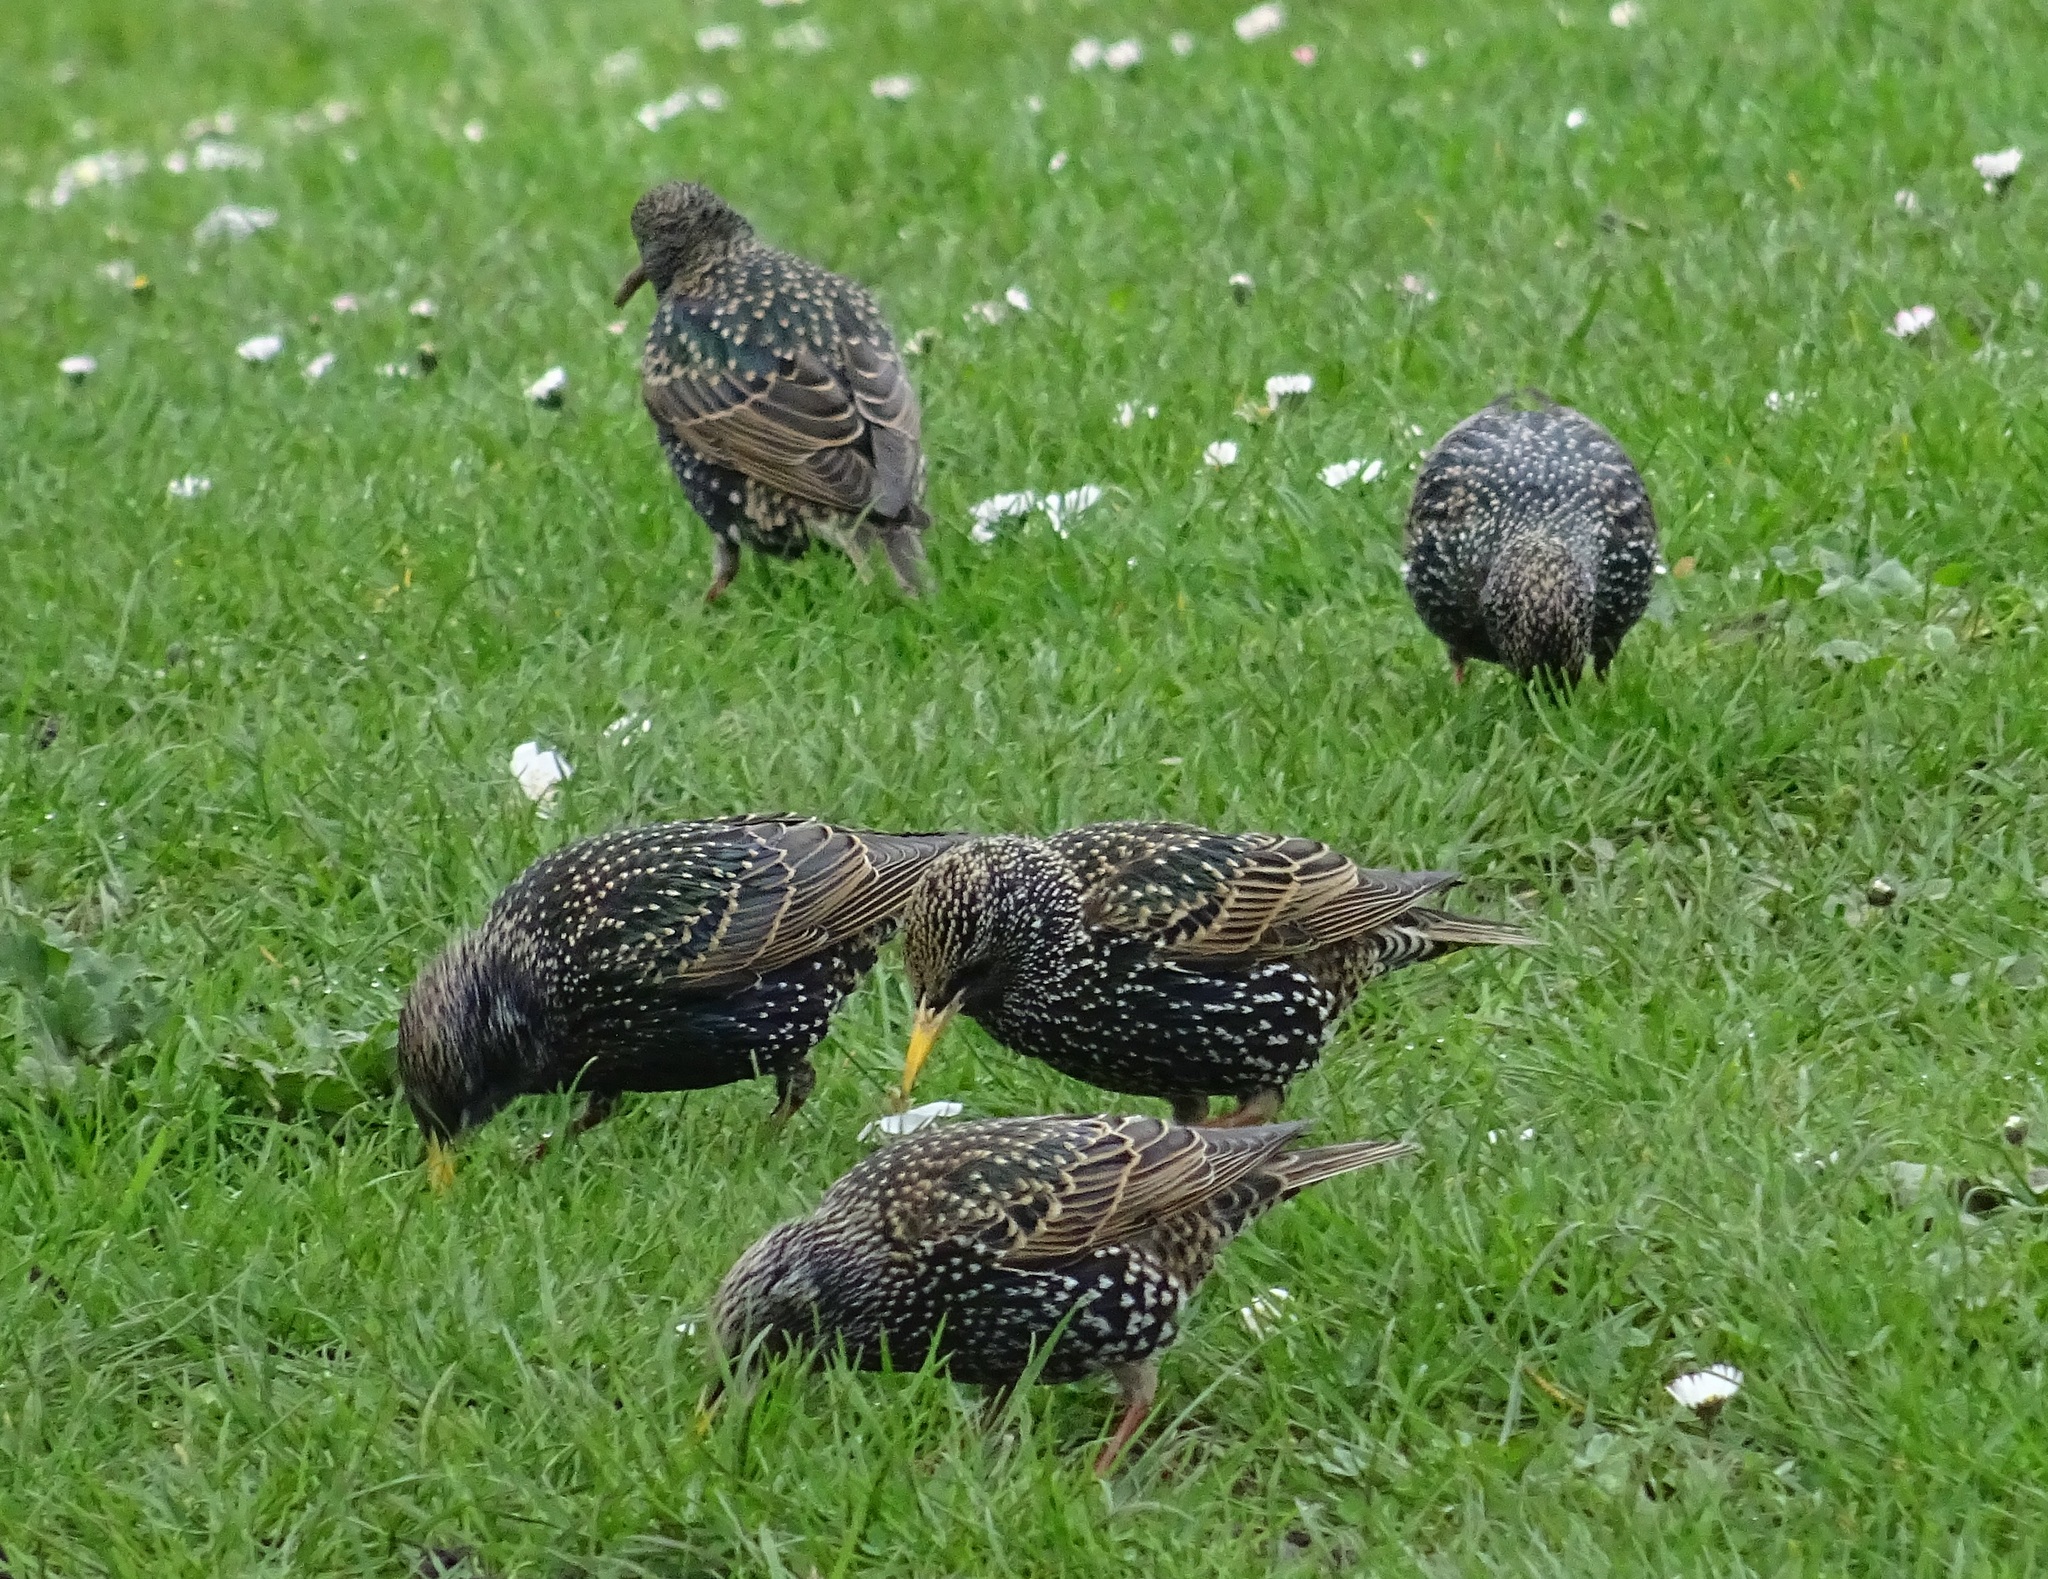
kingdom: Animalia
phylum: Chordata
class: Aves
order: Passeriformes
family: Sturnidae
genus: Sturnus
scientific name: Sturnus vulgaris
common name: Common starling
